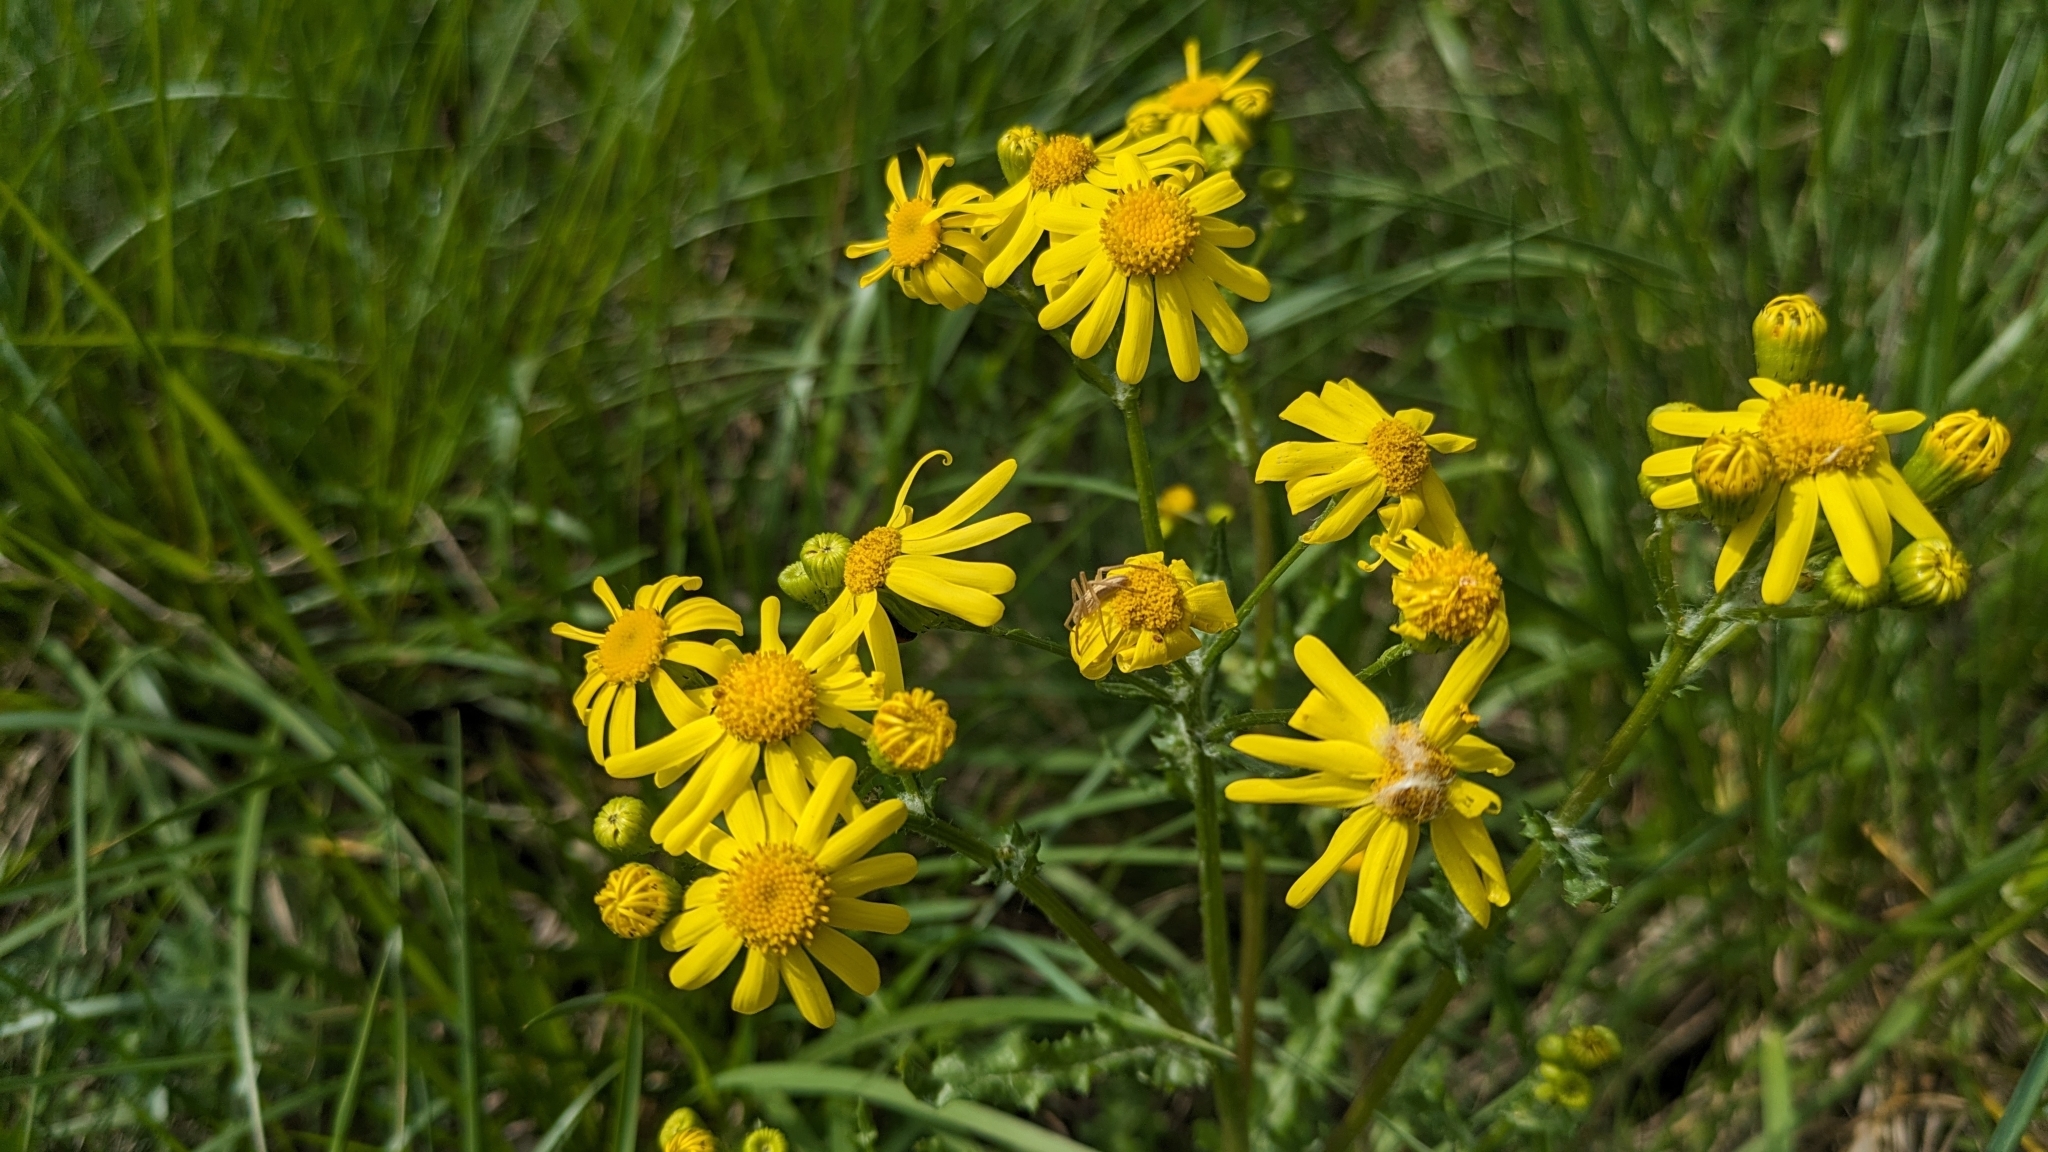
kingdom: Plantae
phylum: Tracheophyta
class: Magnoliopsida
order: Asterales
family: Asteraceae
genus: Senecio
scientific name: Senecio vernalis
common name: Eastern groundsel
